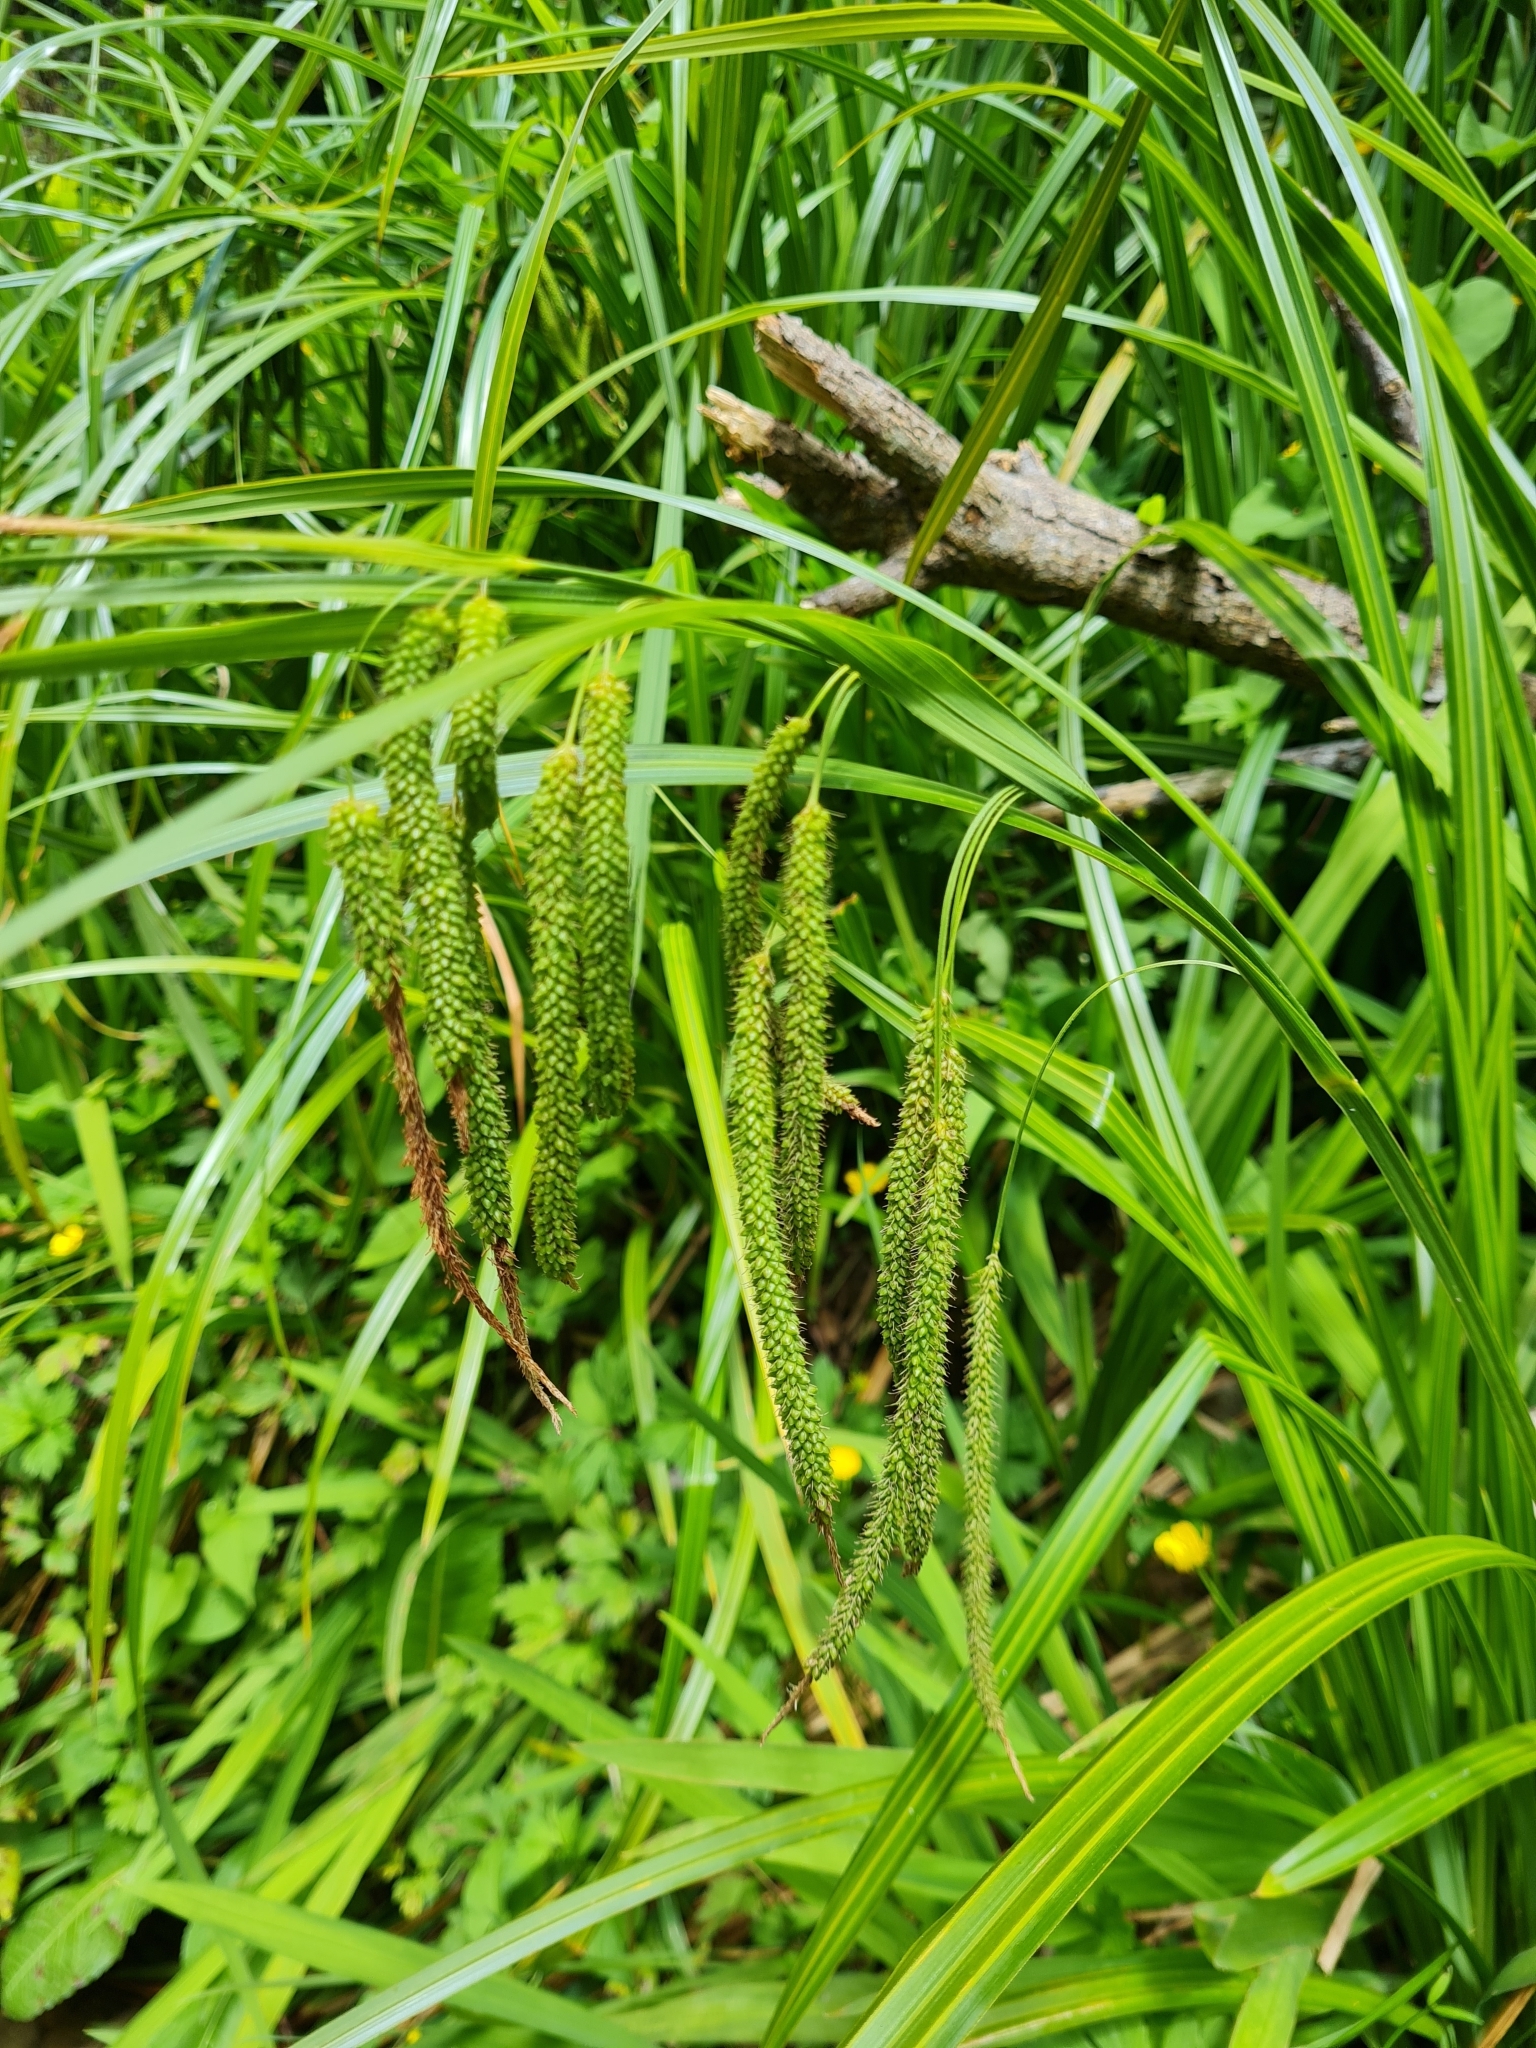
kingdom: Plantae
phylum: Tracheophyta
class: Liliopsida
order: Poales
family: Cyperaceae
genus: Carex
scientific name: Carex geminata
